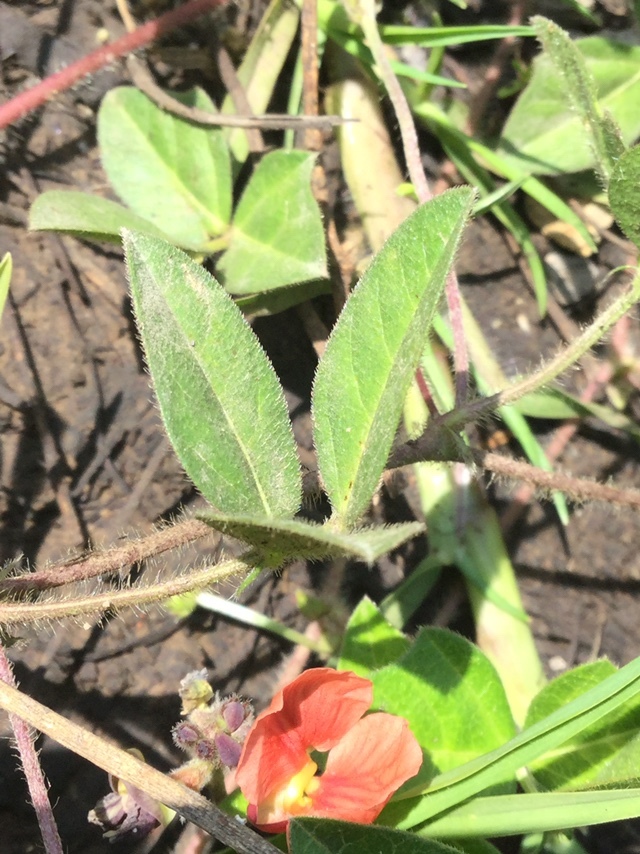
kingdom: Plantae
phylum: Tracheophyta
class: Magnoliopsida
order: Fabales
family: Fabaceae
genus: Macroptilium
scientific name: Macroptilium gibbosifolium
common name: Variableleaf bushbean
